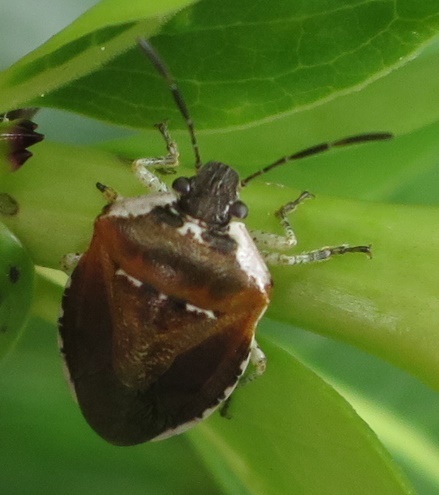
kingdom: Animalia
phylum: Arthropoda
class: Insecta
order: Hemiptera
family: Pentatomidae
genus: Monteithiella
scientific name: Monteithiella
